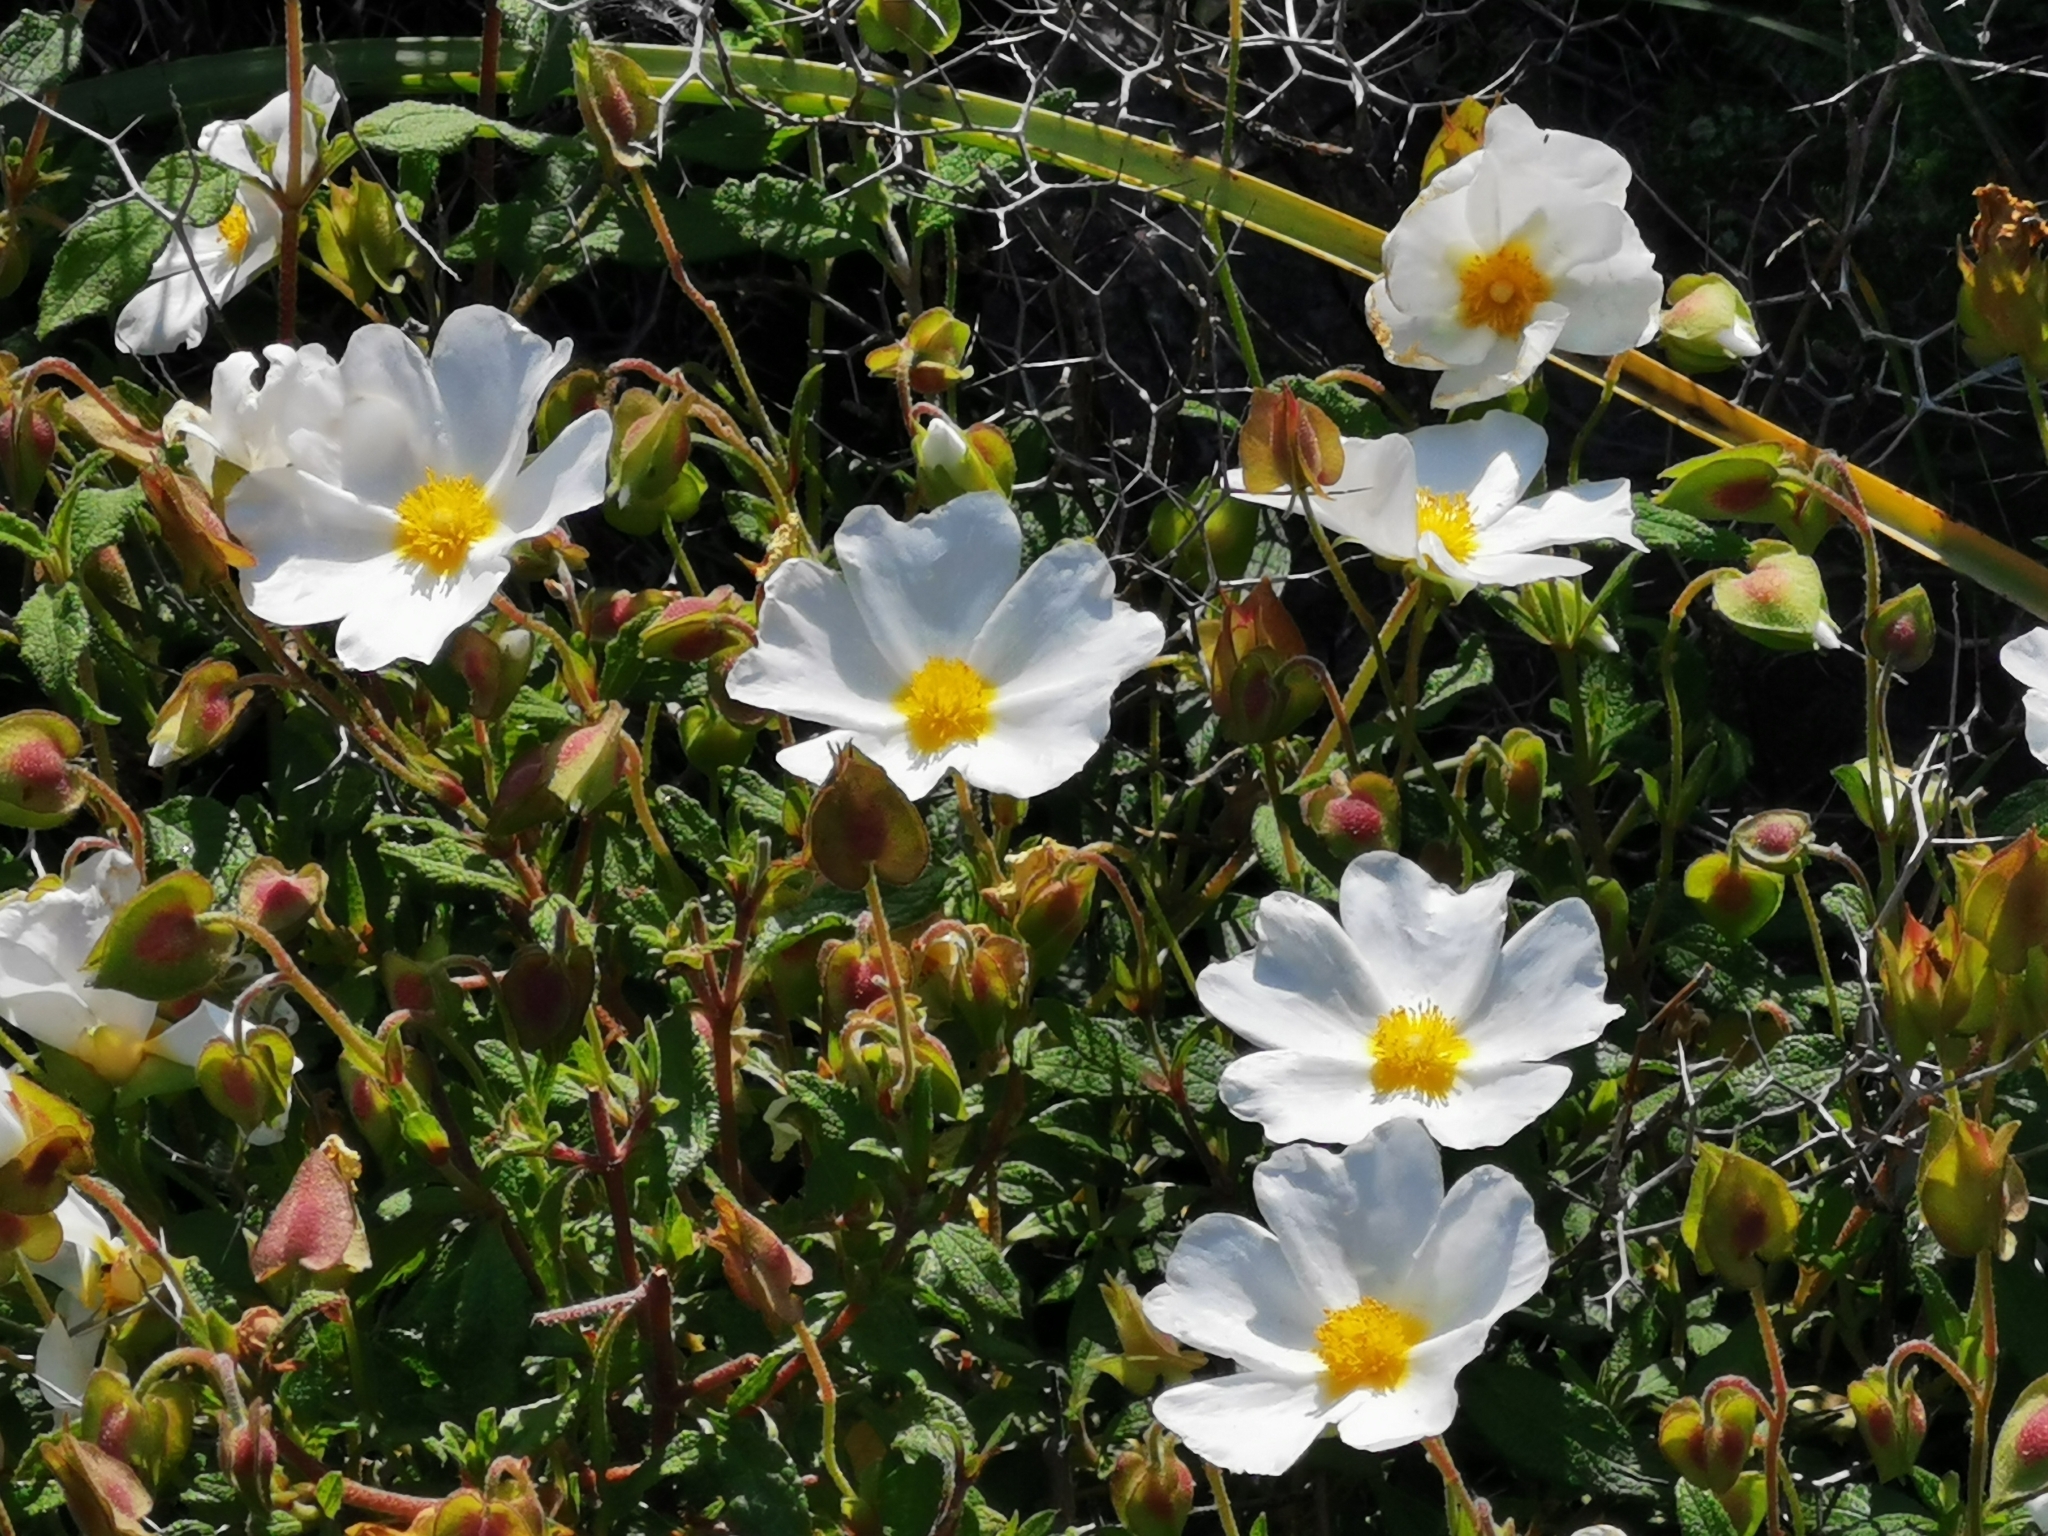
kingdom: Plantae
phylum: Tracheophyta
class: Magnoliopsida
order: Malvales
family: Cistaceae
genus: Cistus
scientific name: Cistus salviifolius
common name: Salvia cistus
